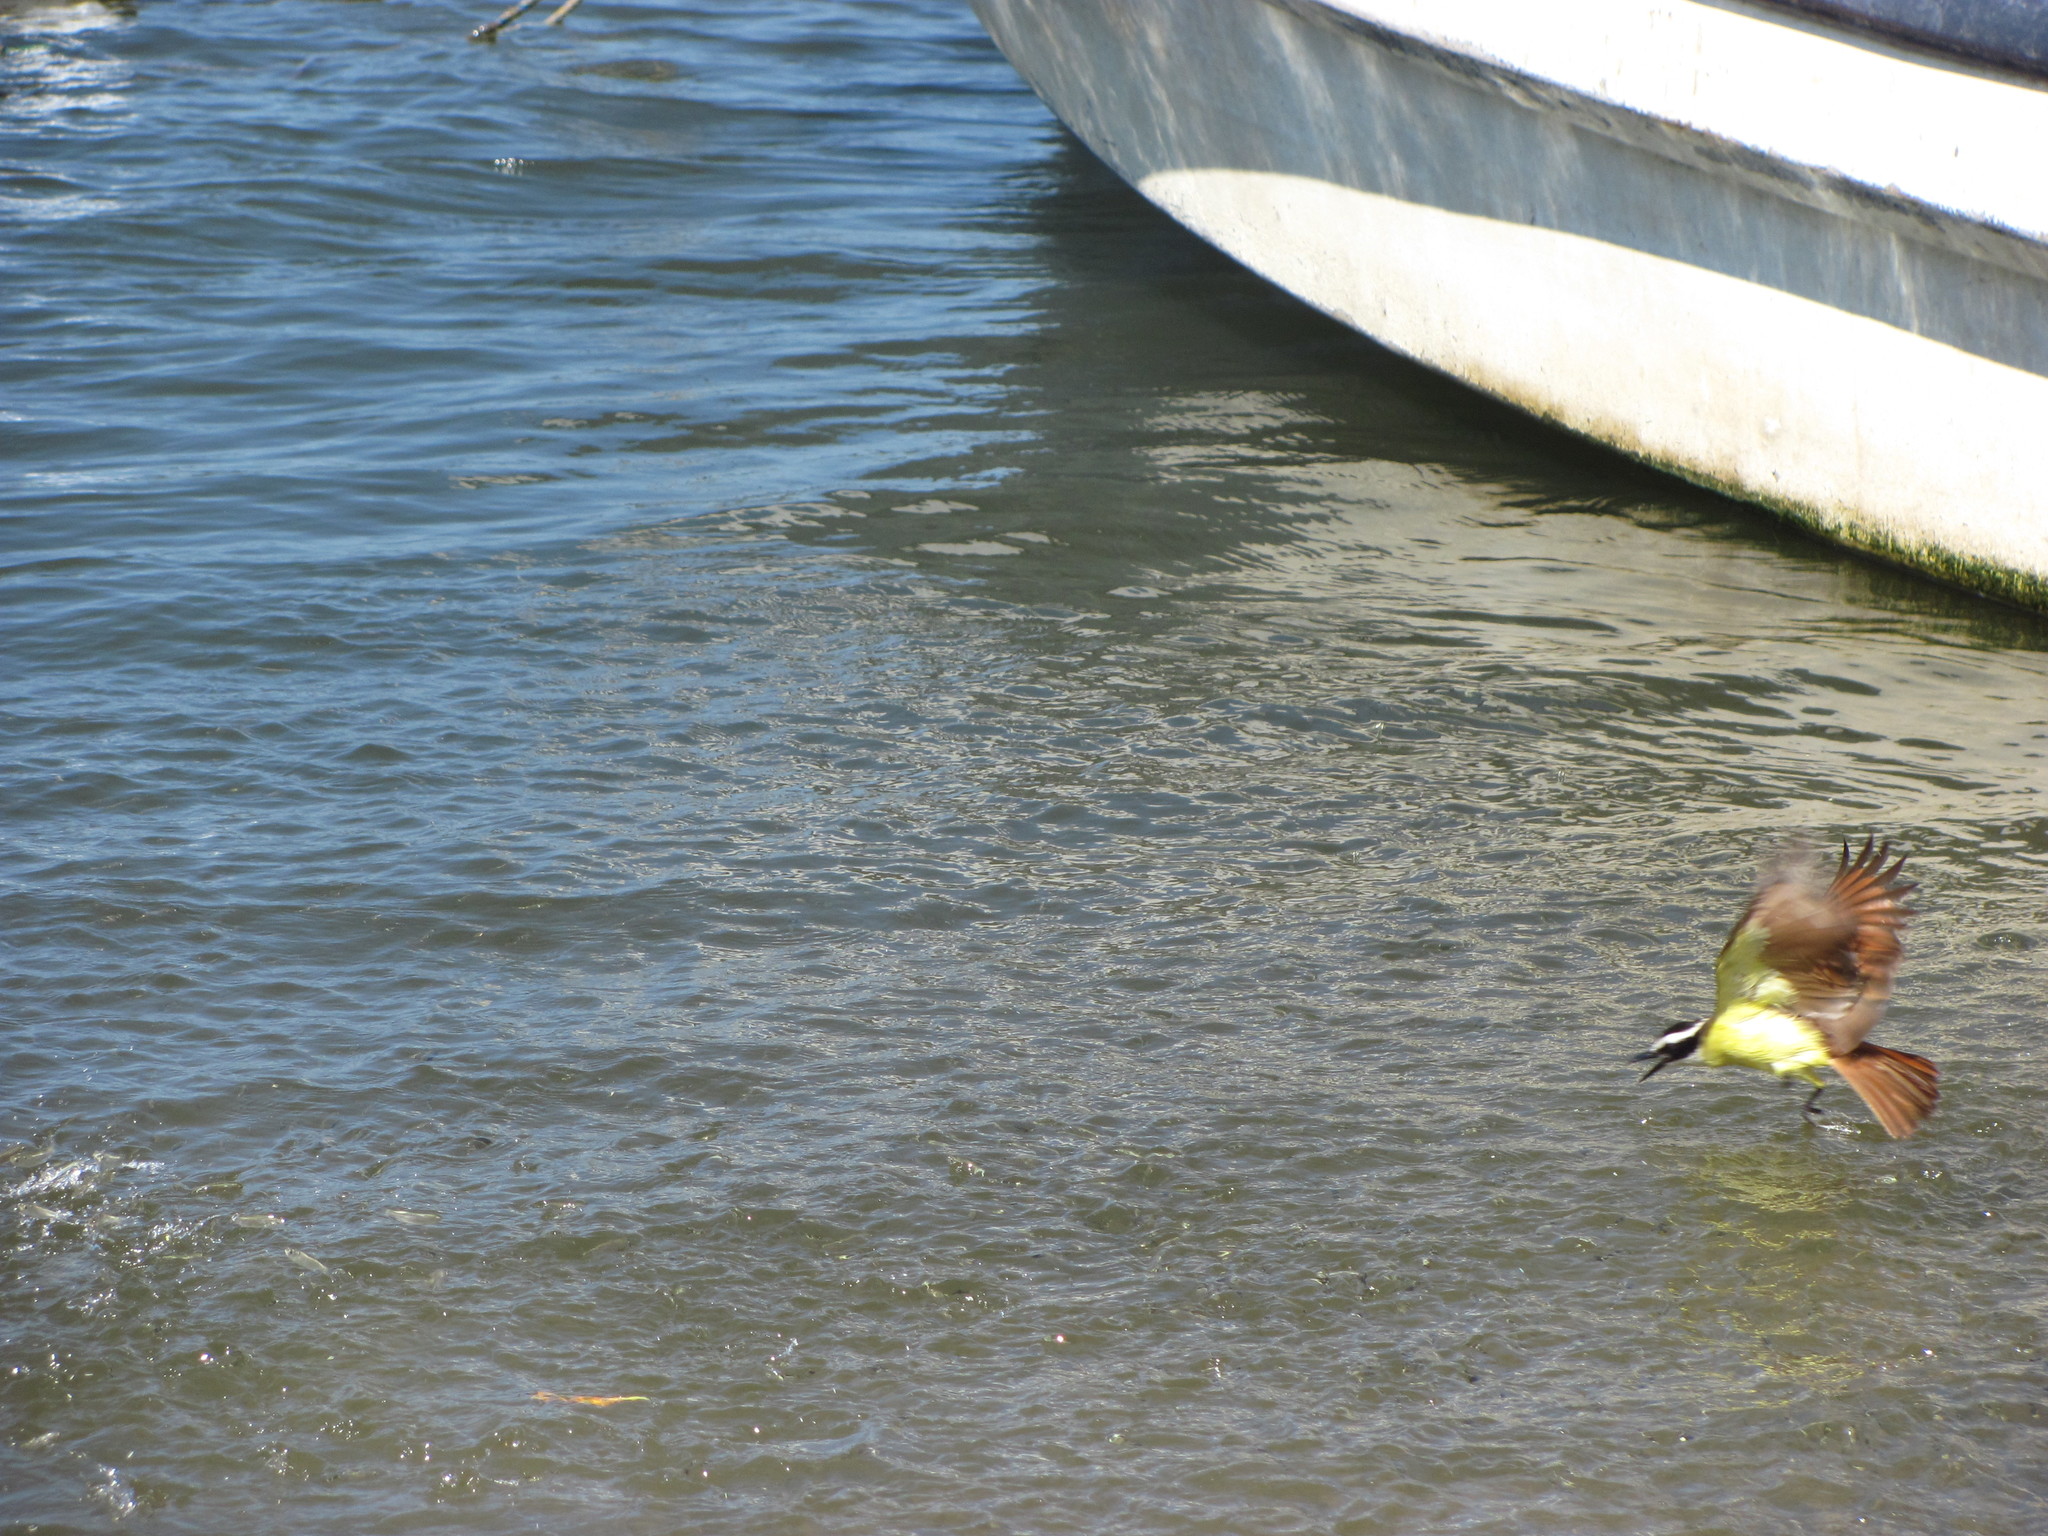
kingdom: Animalia
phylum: Chordata
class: Aves
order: Passeriformes
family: Tyrannidae
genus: Pitangus
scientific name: Pitangus sulphuratus
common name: Great kiskadee
